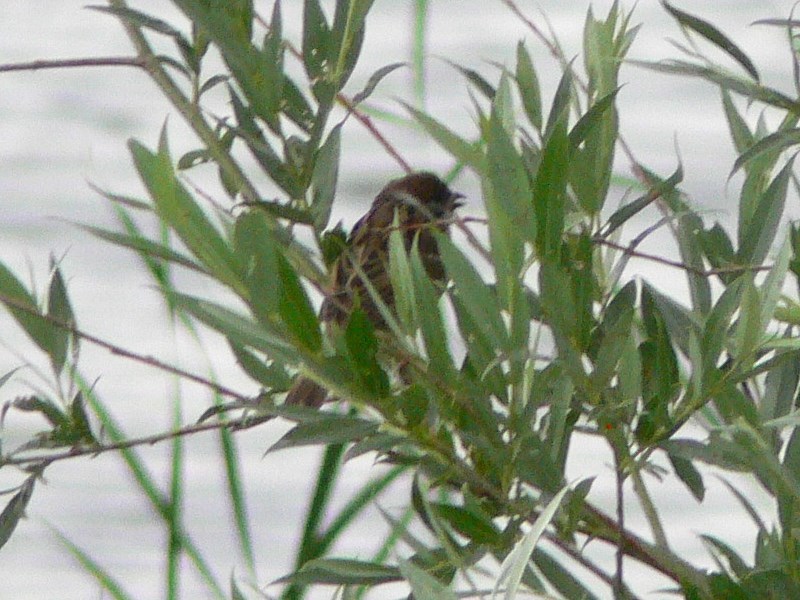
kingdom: Animalia
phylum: Chordata
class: Aves
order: Passeriformes
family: Passeridae
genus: Passer
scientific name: Passer montanus
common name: Eurasian tree sparrow
